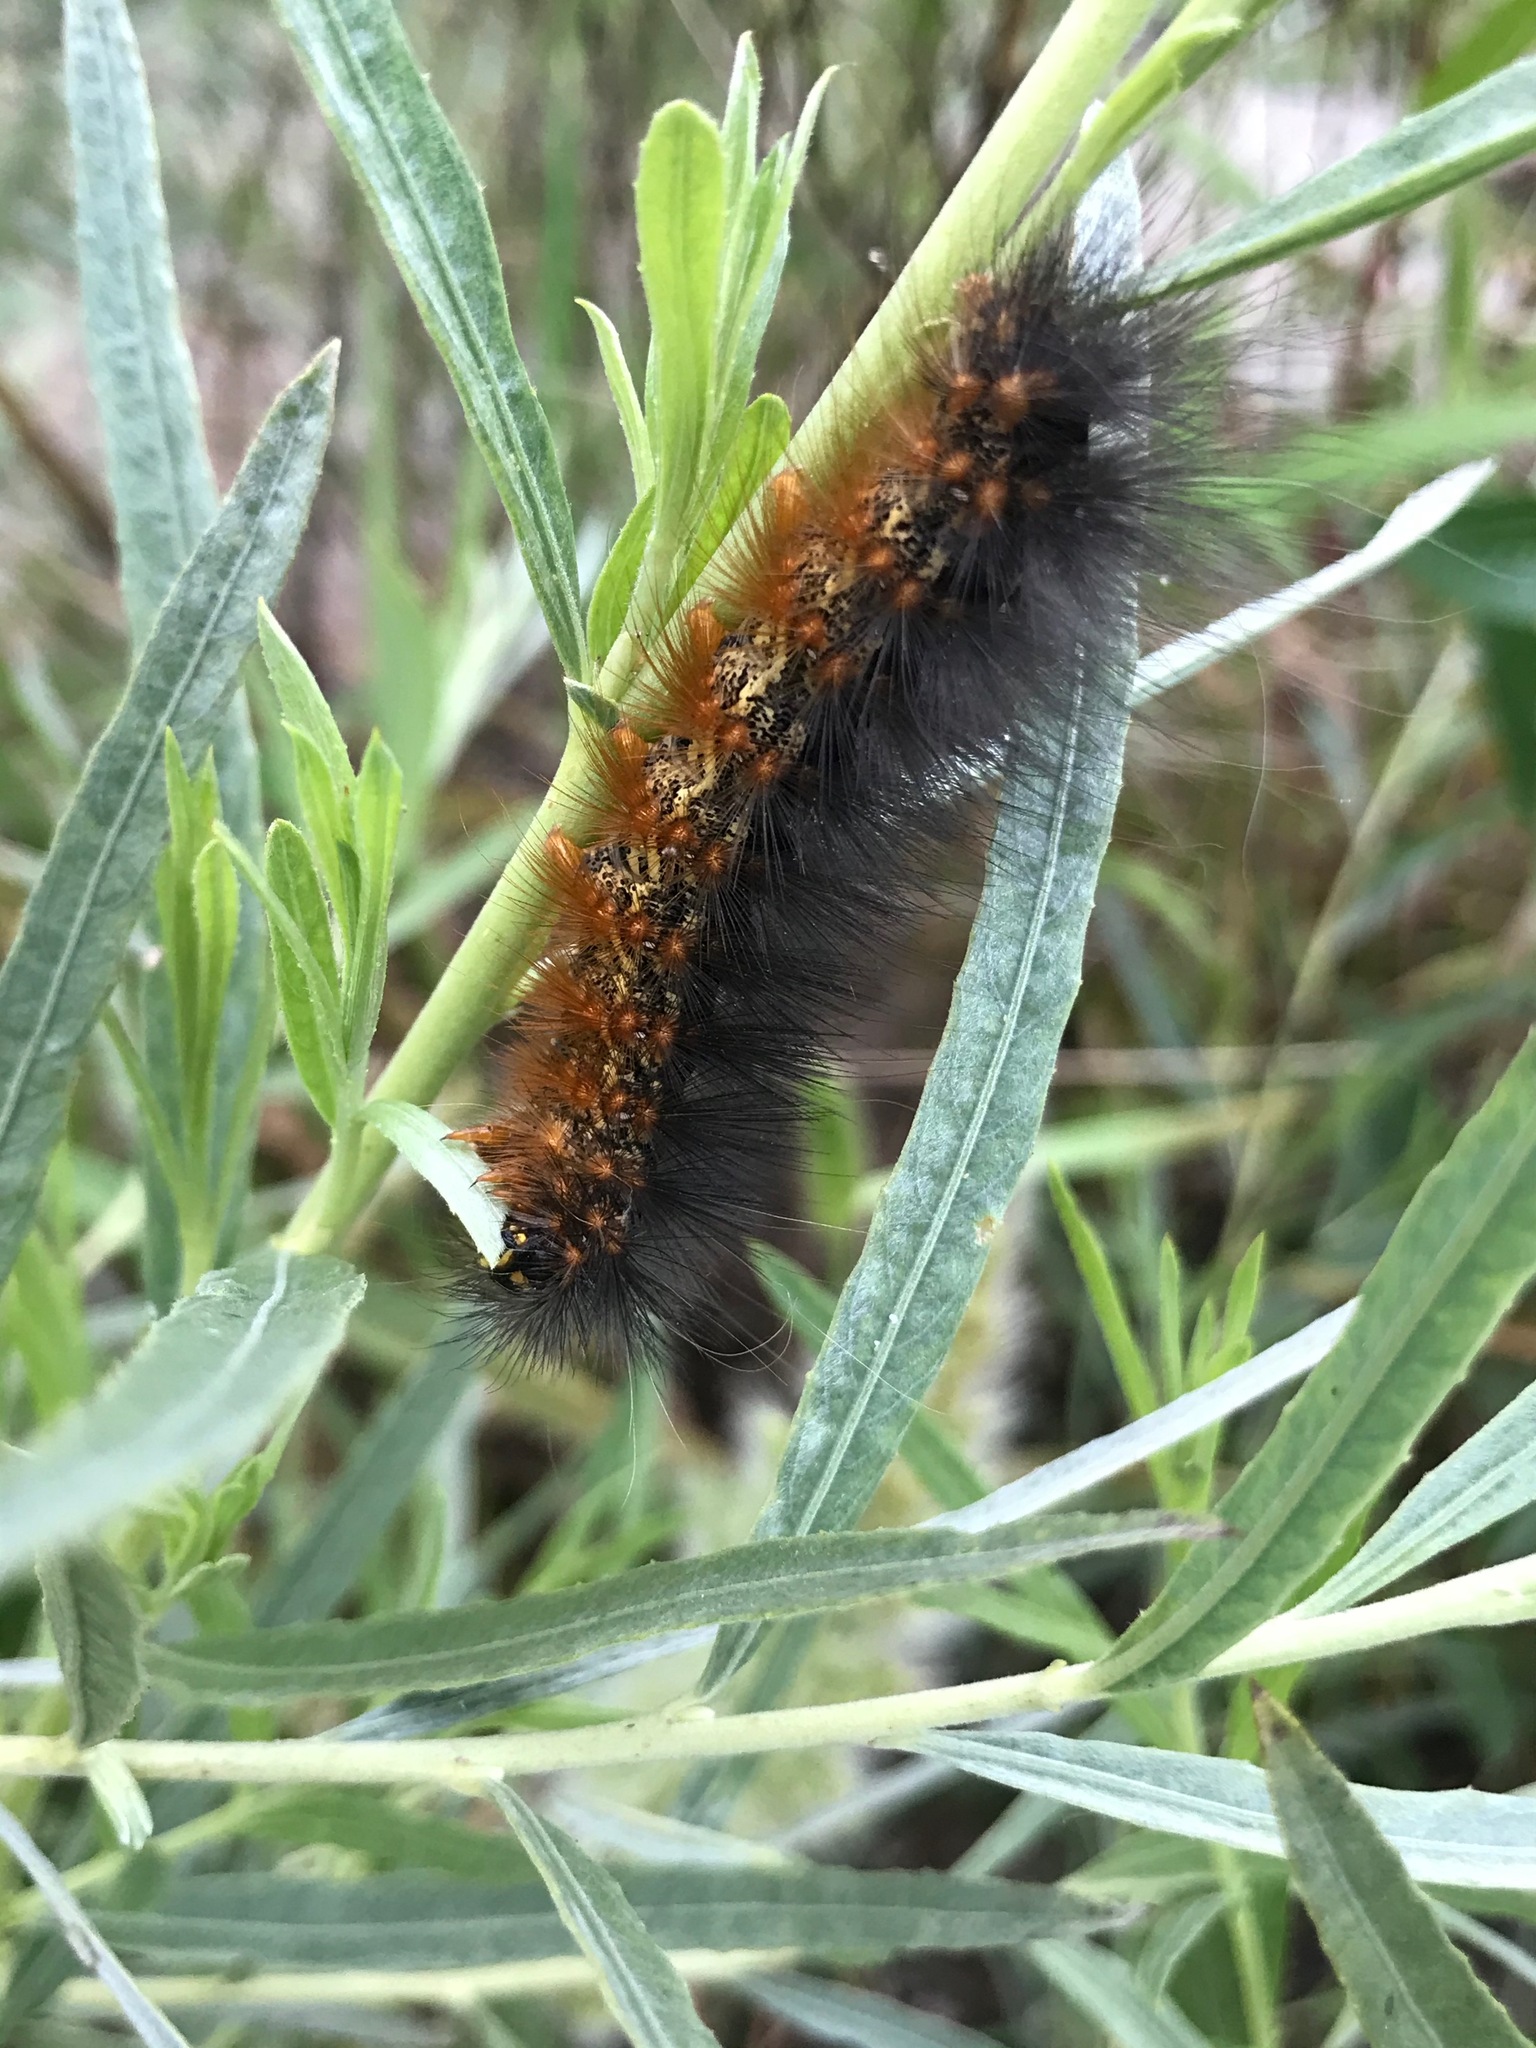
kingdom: Animalia
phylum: Arthropoda
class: Insecta
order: Lepidoptera
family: Erebidae
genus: Estigmene
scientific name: Estigmene acrea
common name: Salt marsh moth
